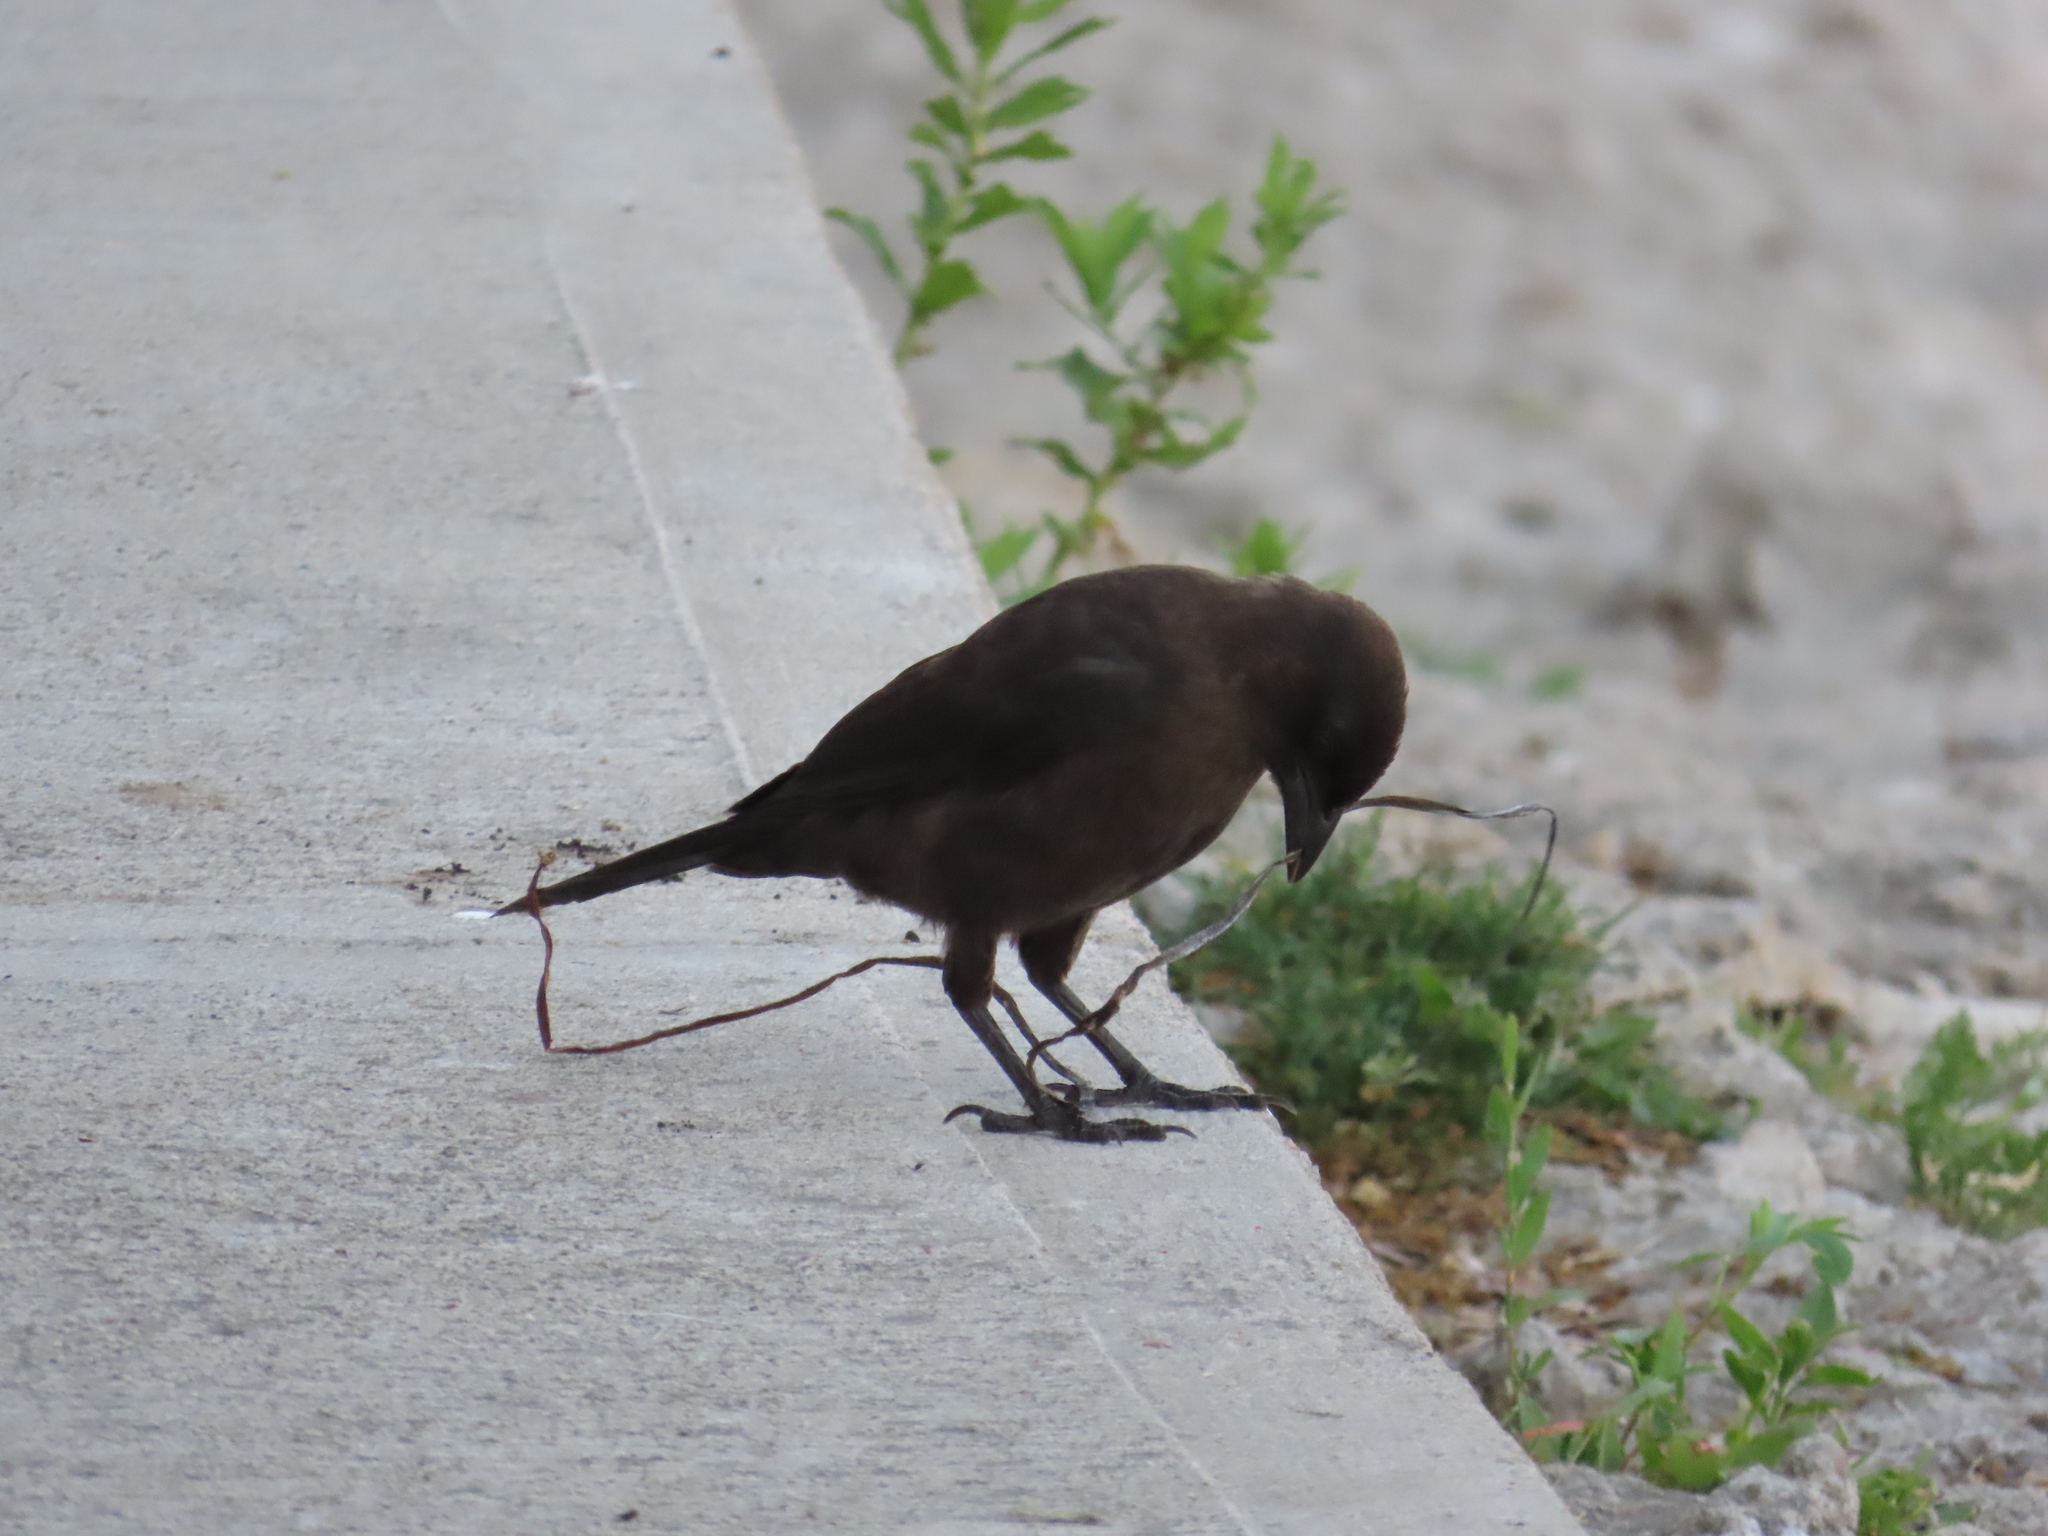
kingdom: Animalia
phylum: Chordata
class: Aves
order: Passeriformes
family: Icteridae
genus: Quiscalus
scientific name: Quiscalus quiscula
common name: Common grackle
